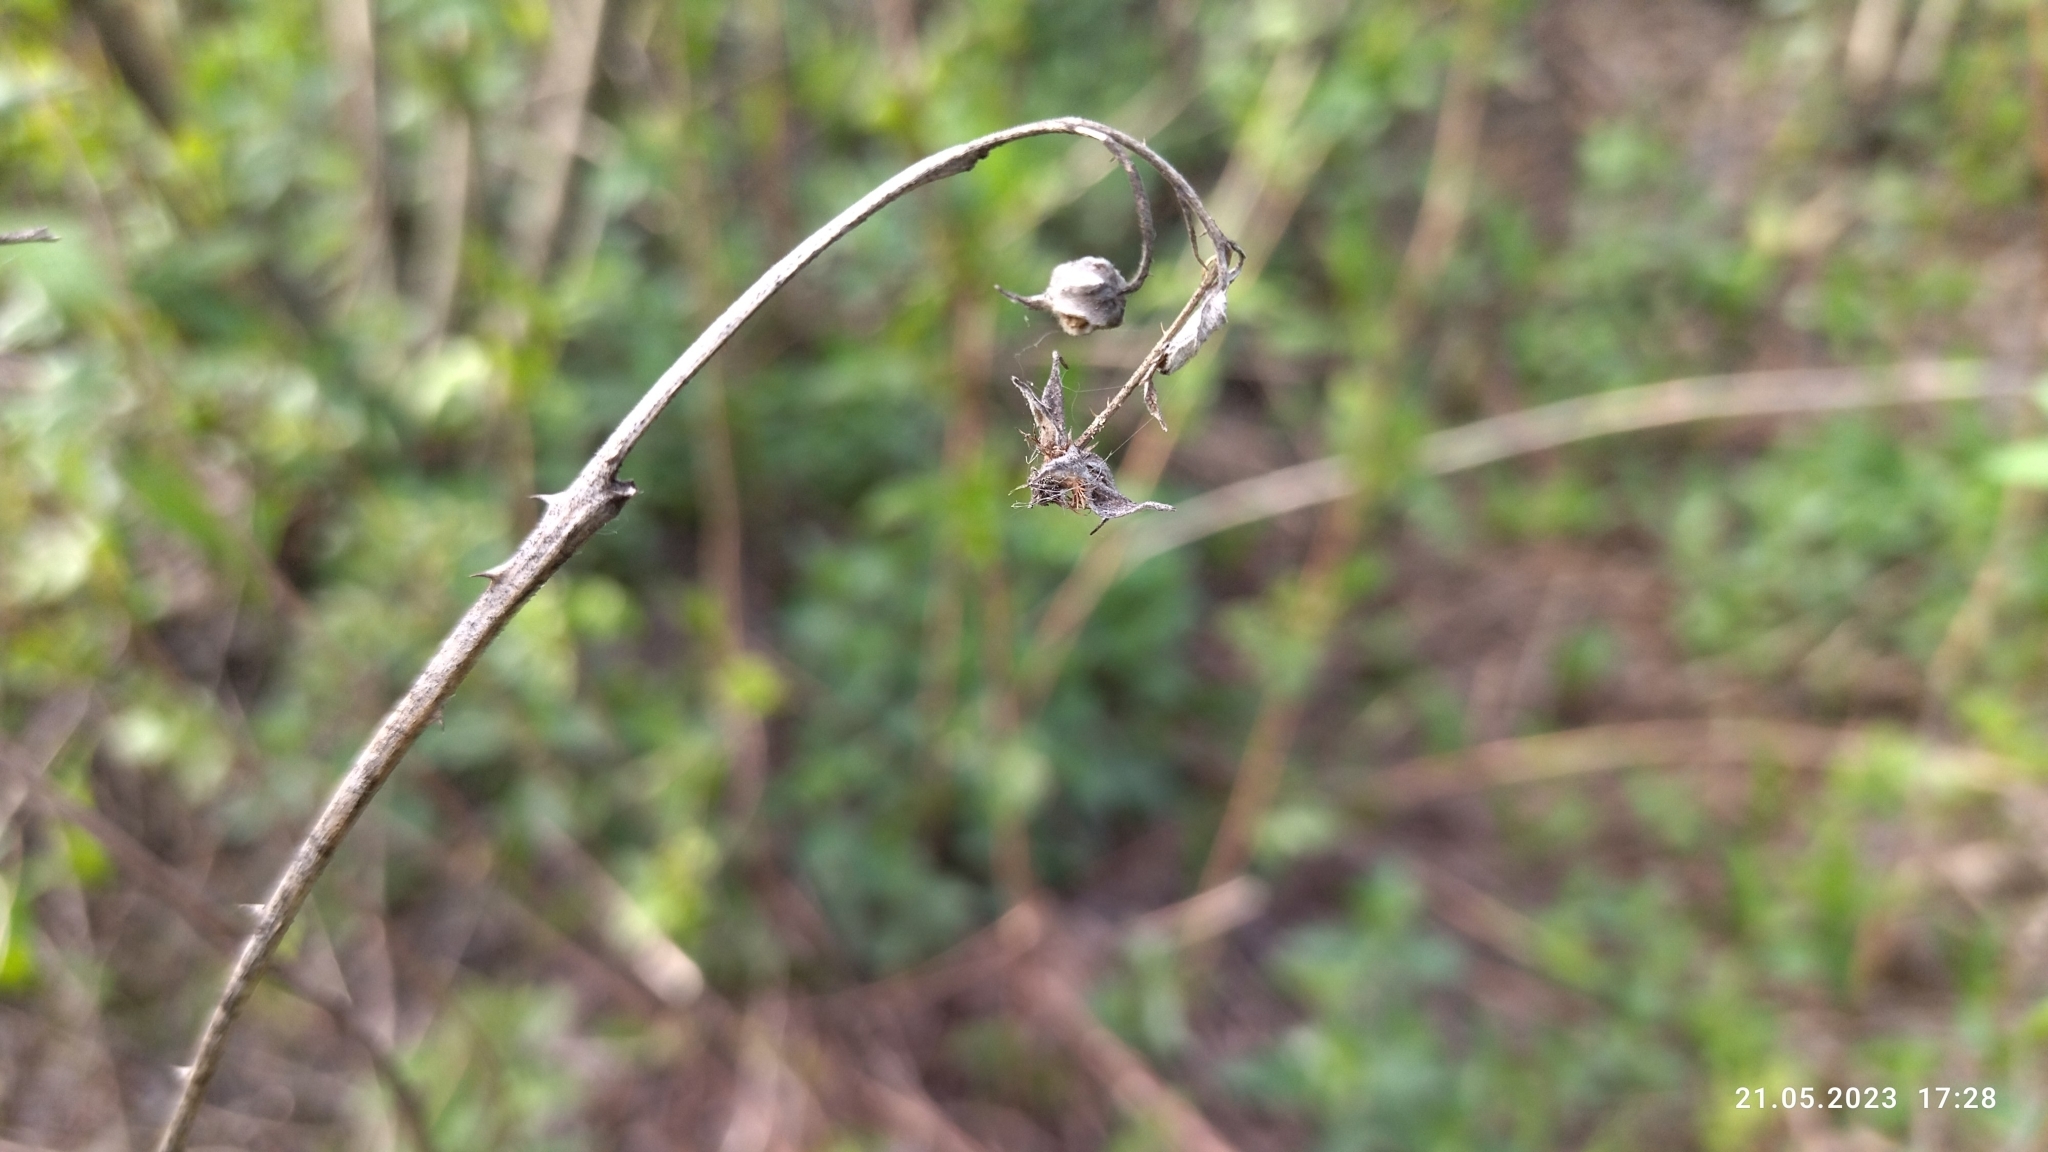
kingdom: Plantae
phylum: Tracheophyta
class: Magnoliopsida
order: Asterales
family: Asteraceae
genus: Solidago
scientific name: Solidago virgaurea
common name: Goldenrod
